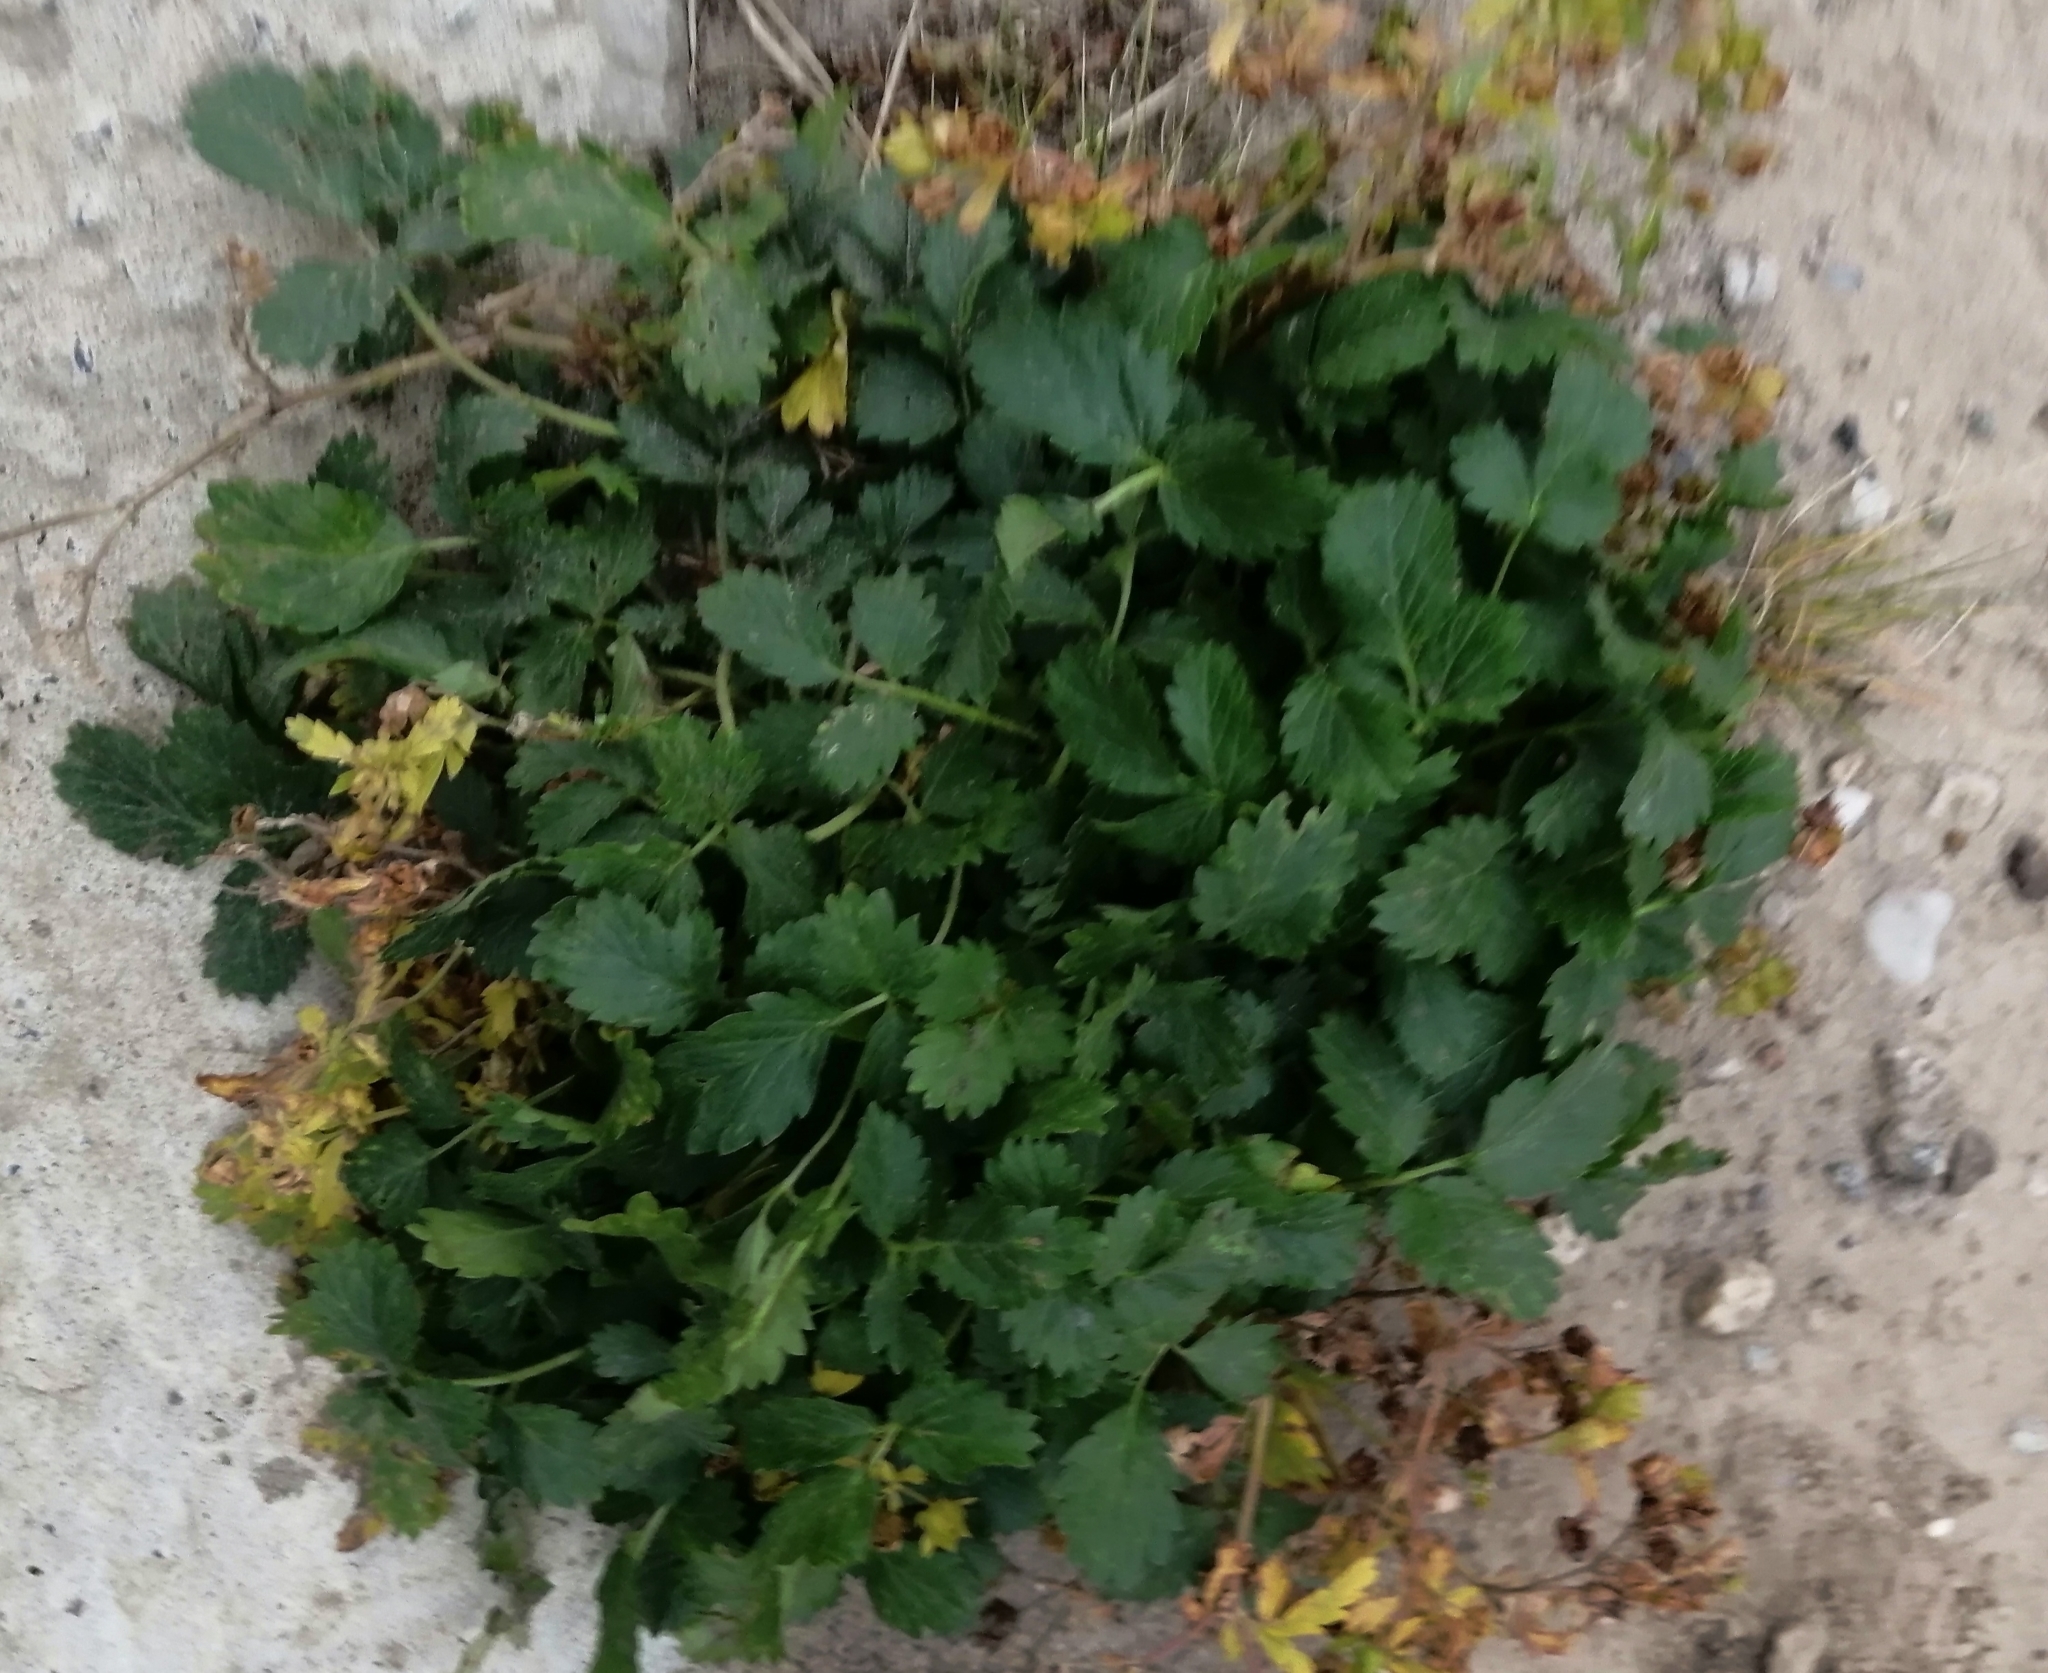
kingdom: Plantae
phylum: Tracheophyta
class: Magnoliopsida
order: Rosales
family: Rosaceae
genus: Potentilla
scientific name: Potentilla norvegica
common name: Ternate-leaved cinquefoil
